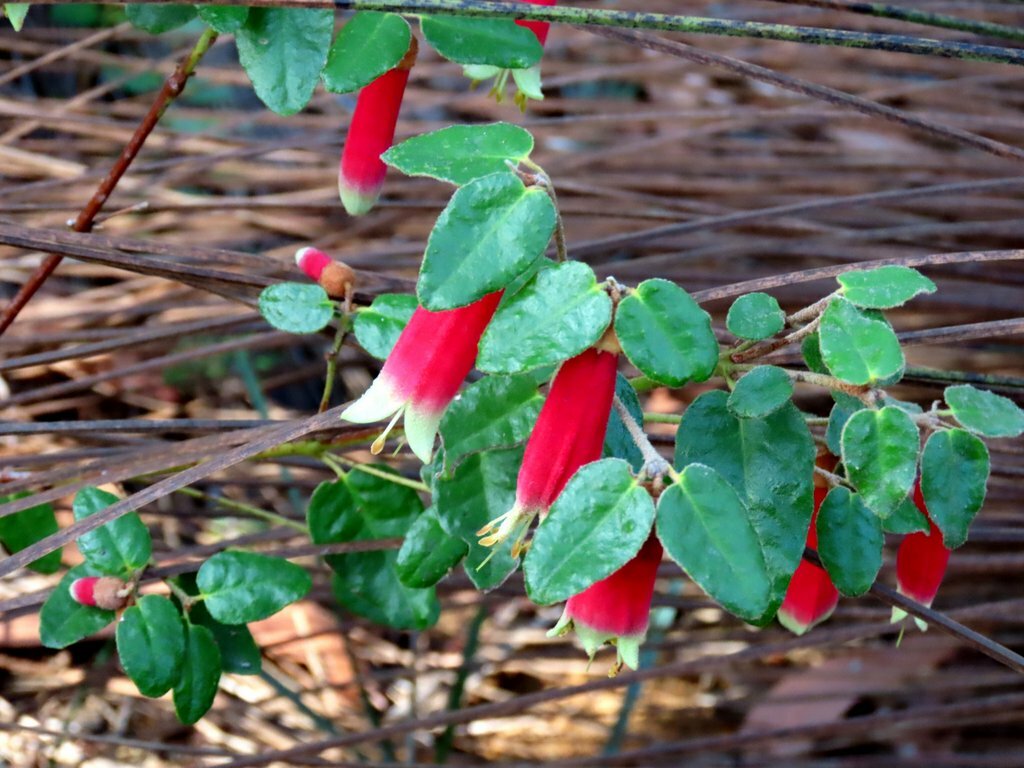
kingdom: Plantae
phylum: Tracheophyta
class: Magnoliopsida
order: Sapindales
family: Rutaceae
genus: Correa
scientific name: Correa reflexa
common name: Common correa
